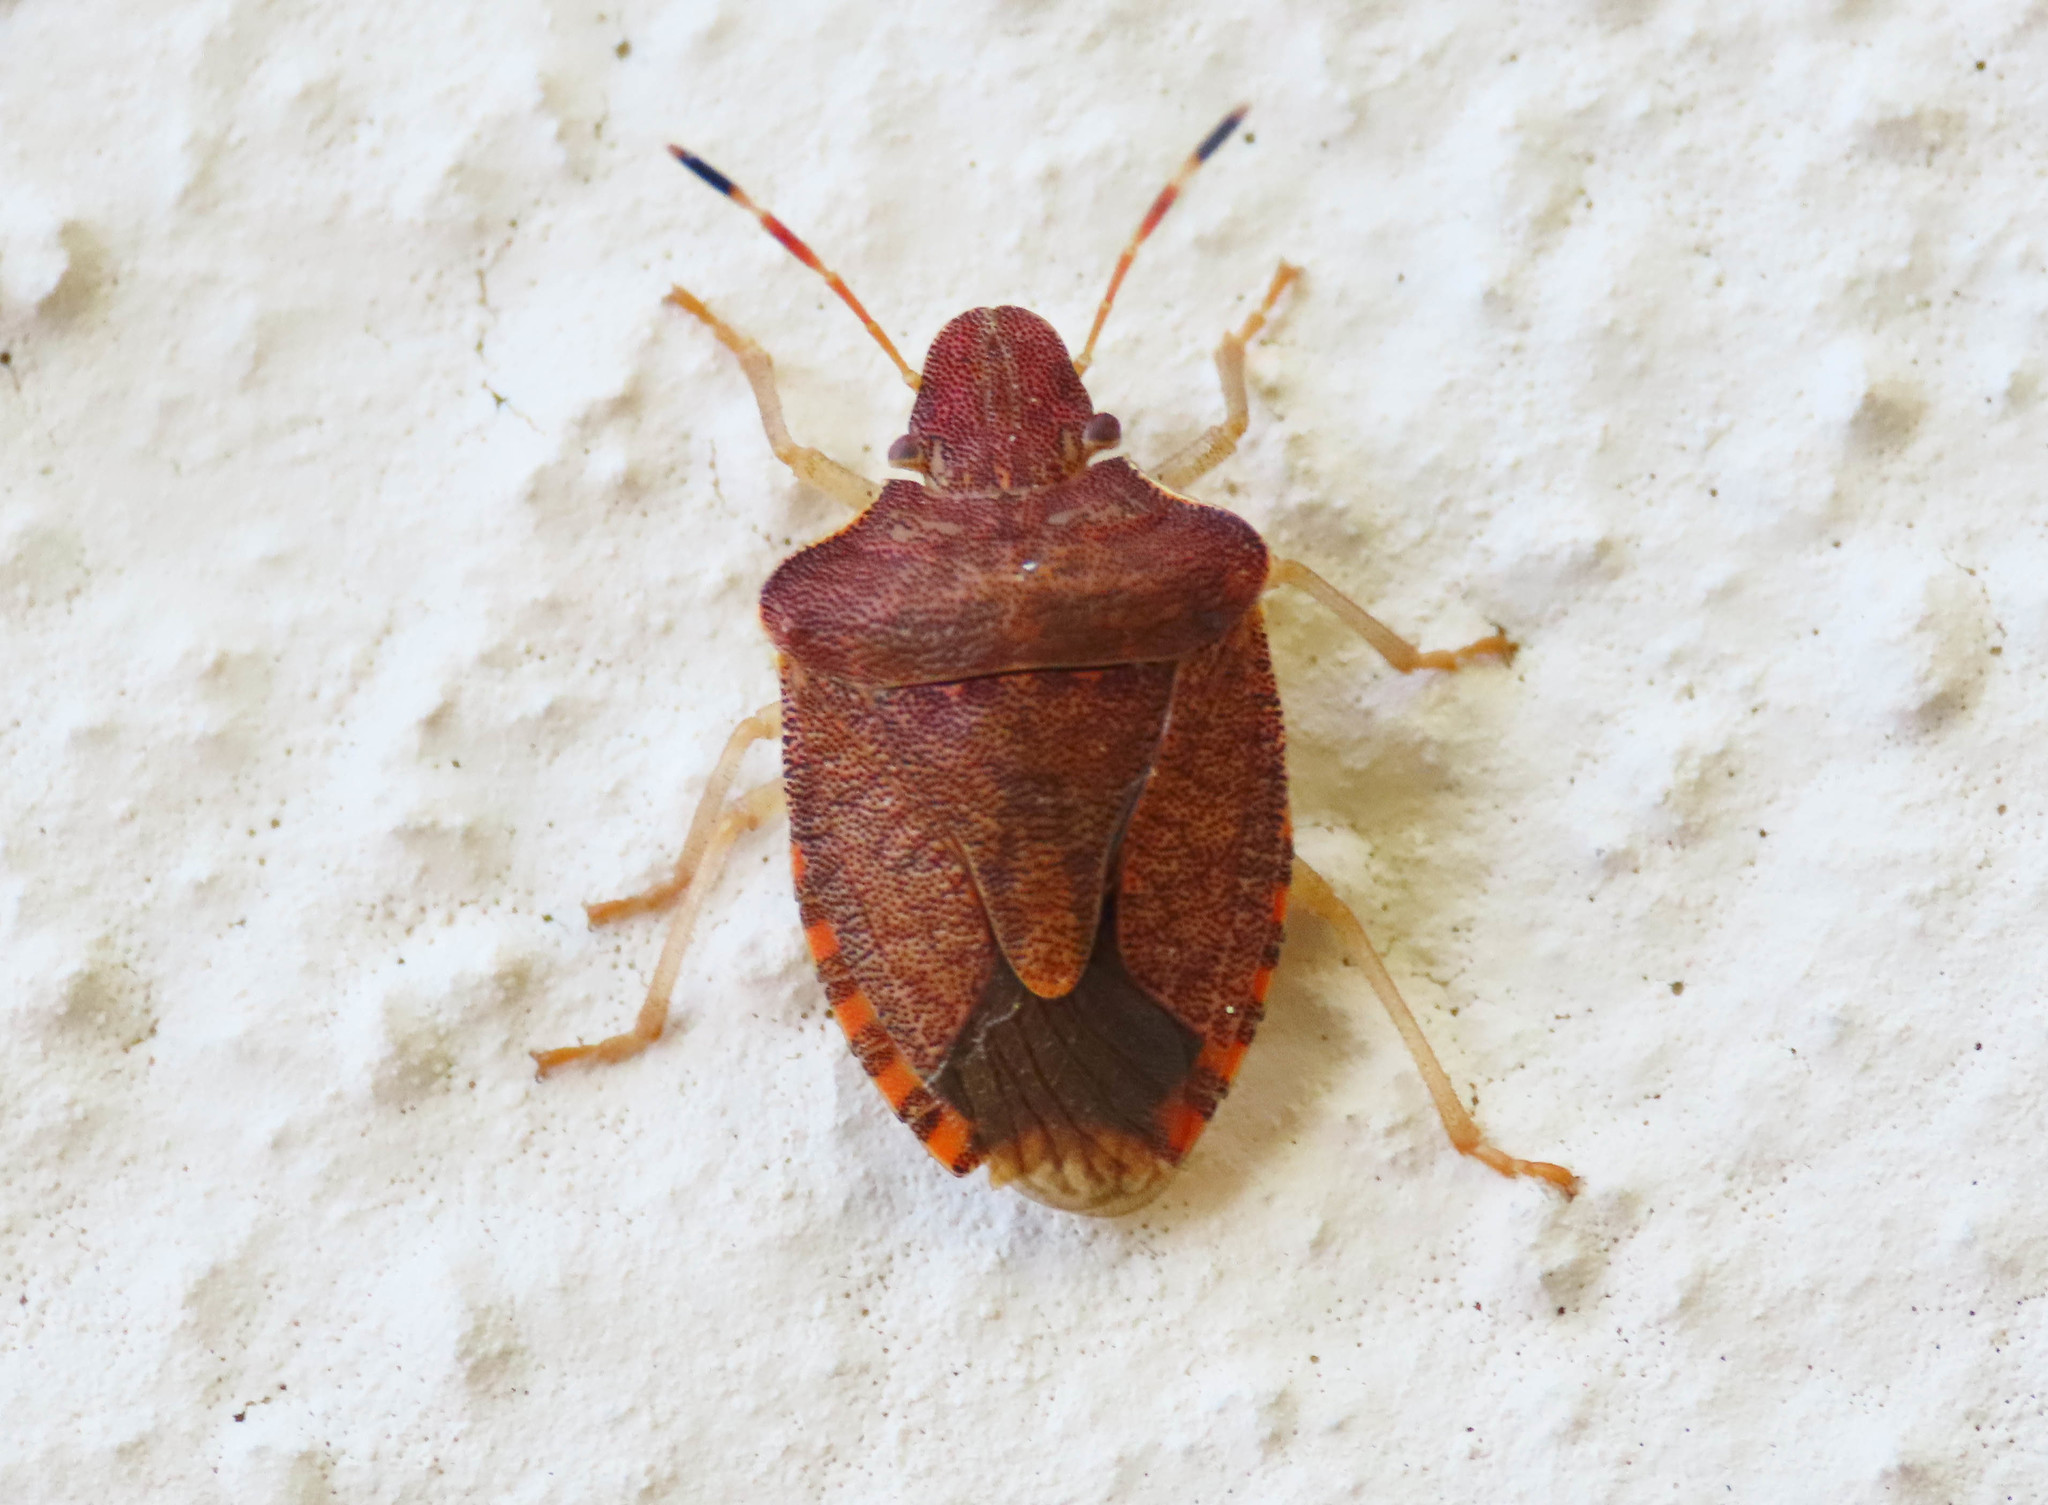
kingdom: Animalia
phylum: Arthropoda
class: Insecta
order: Hemiptera
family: Pentatomidae
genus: Holcostethus
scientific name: Holcostethus strictus
